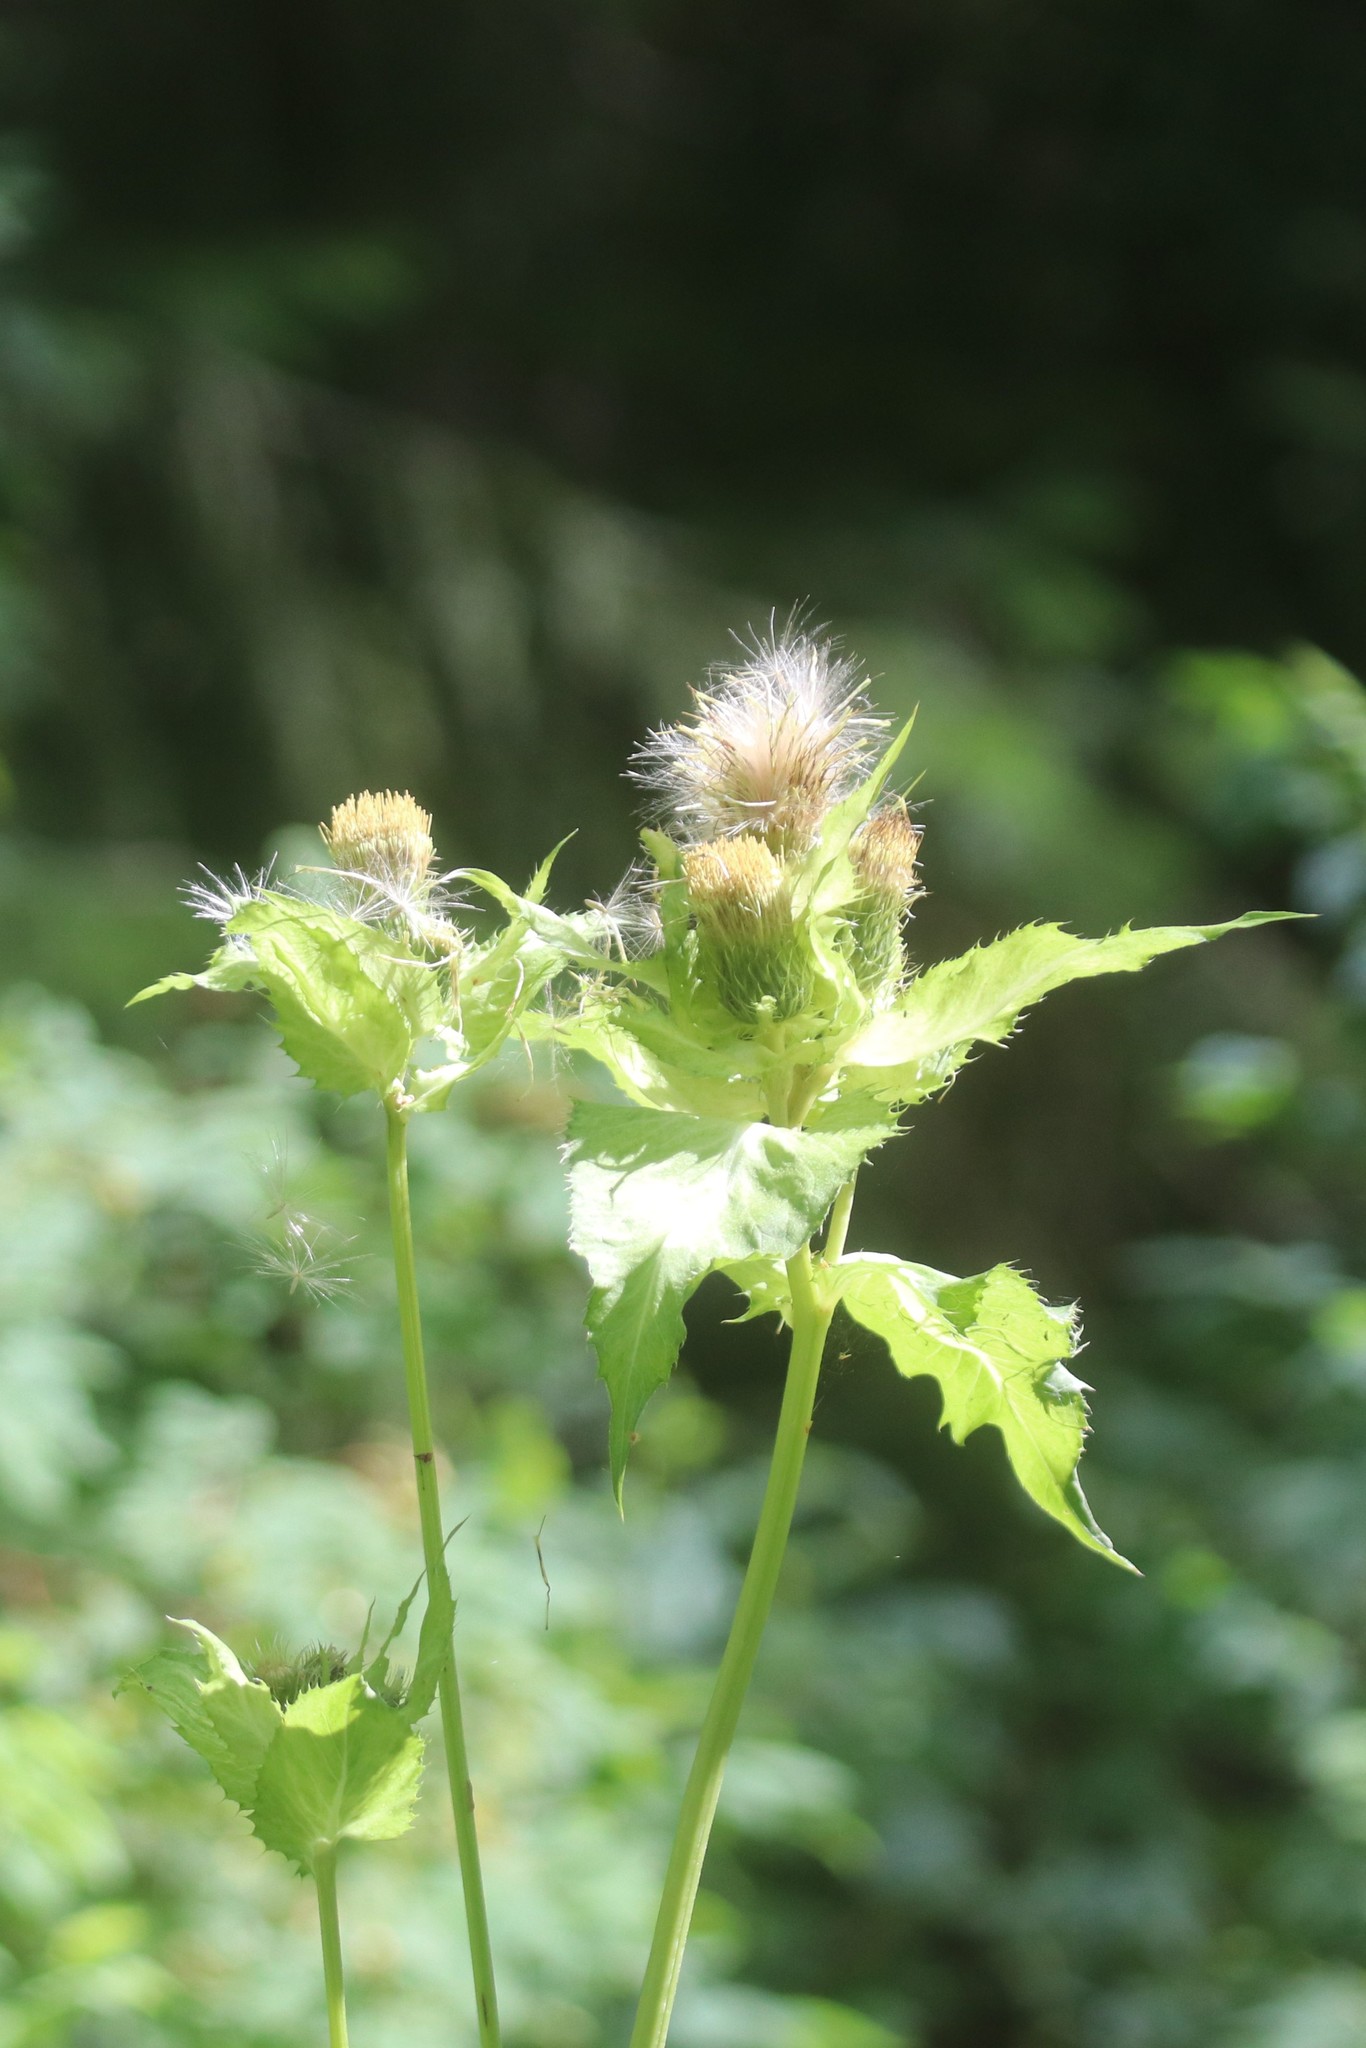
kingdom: Plantae
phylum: Tracheophyta
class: Magnoliopsida
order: Asterales
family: Asteraceae
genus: Cirsium
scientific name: Cirsium oleraceum
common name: Cabbage thistle
